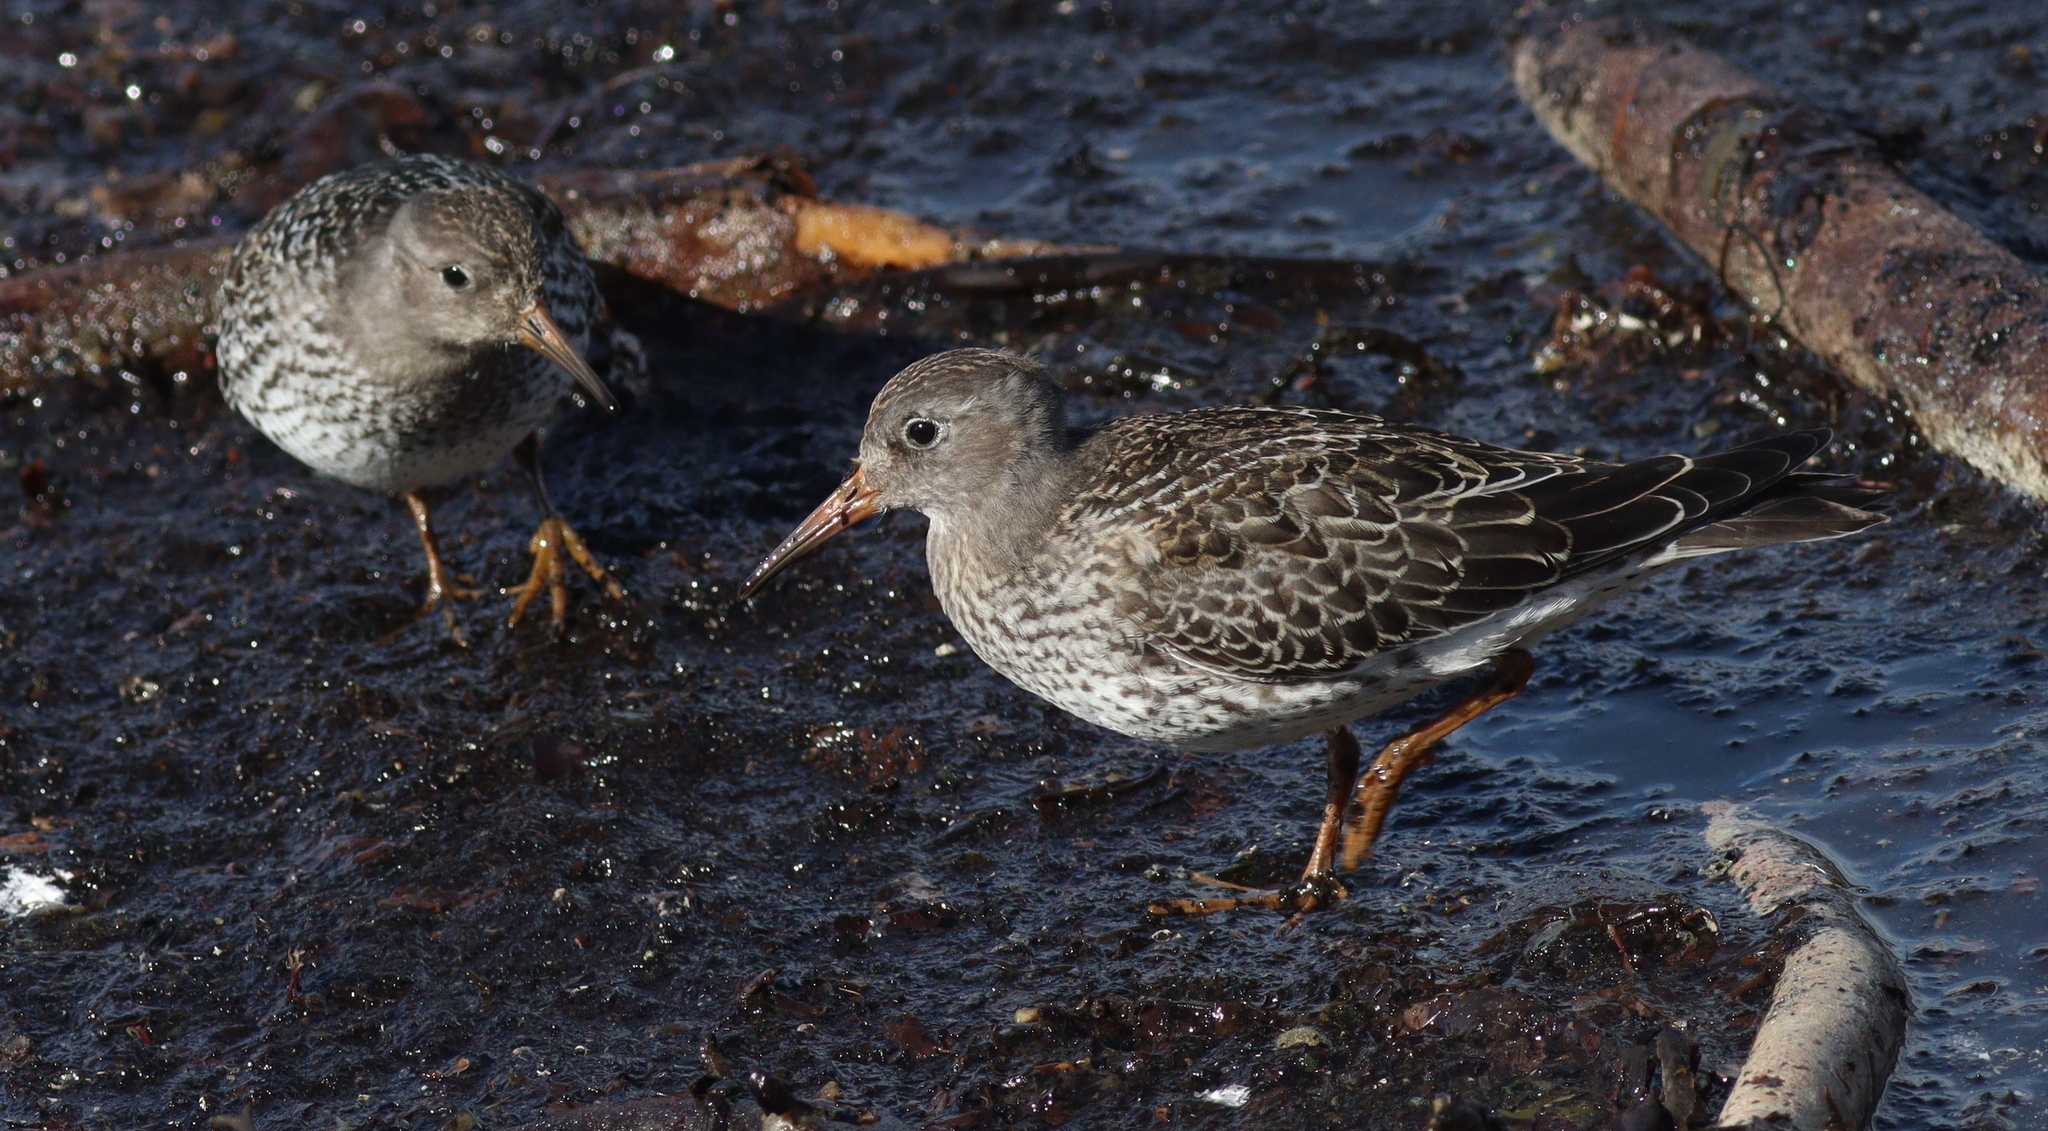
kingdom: Animalia
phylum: Chordata
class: Aves
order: Charadriiformes
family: Scolopacidae
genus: Calidris
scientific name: Calidris maritima
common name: Purple sandpiper
